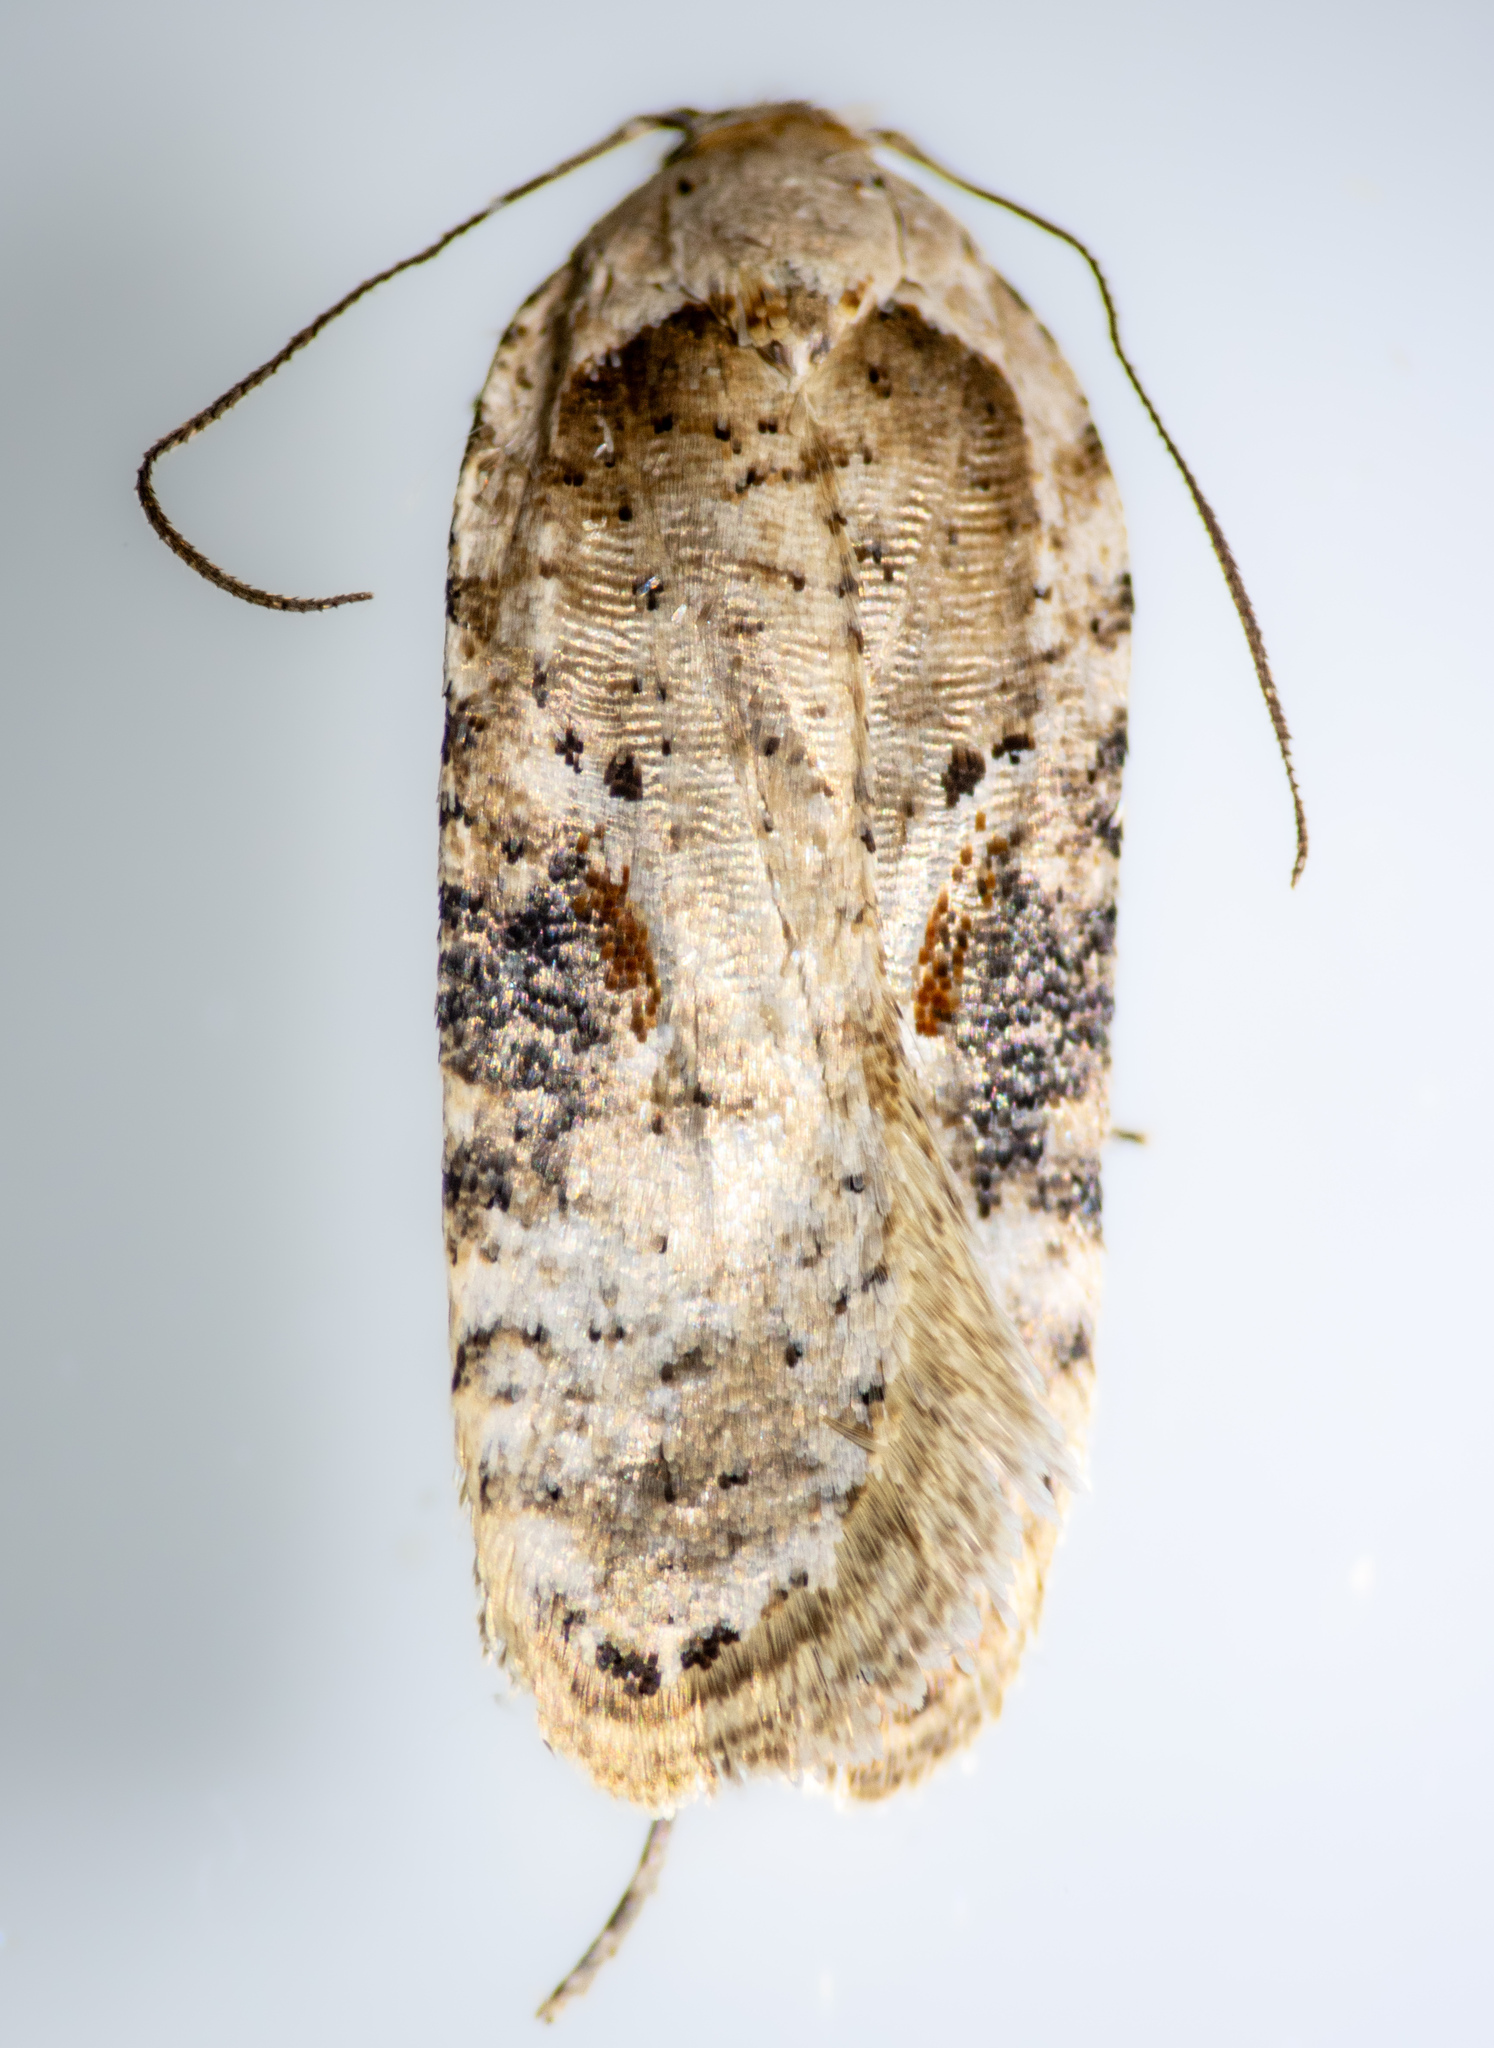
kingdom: Animalia
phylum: Arthropoda
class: Insecta
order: Lepidoptera
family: Depressariidae
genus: Agonopterix
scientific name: Agonopterix alstroemeriana
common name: Moth
